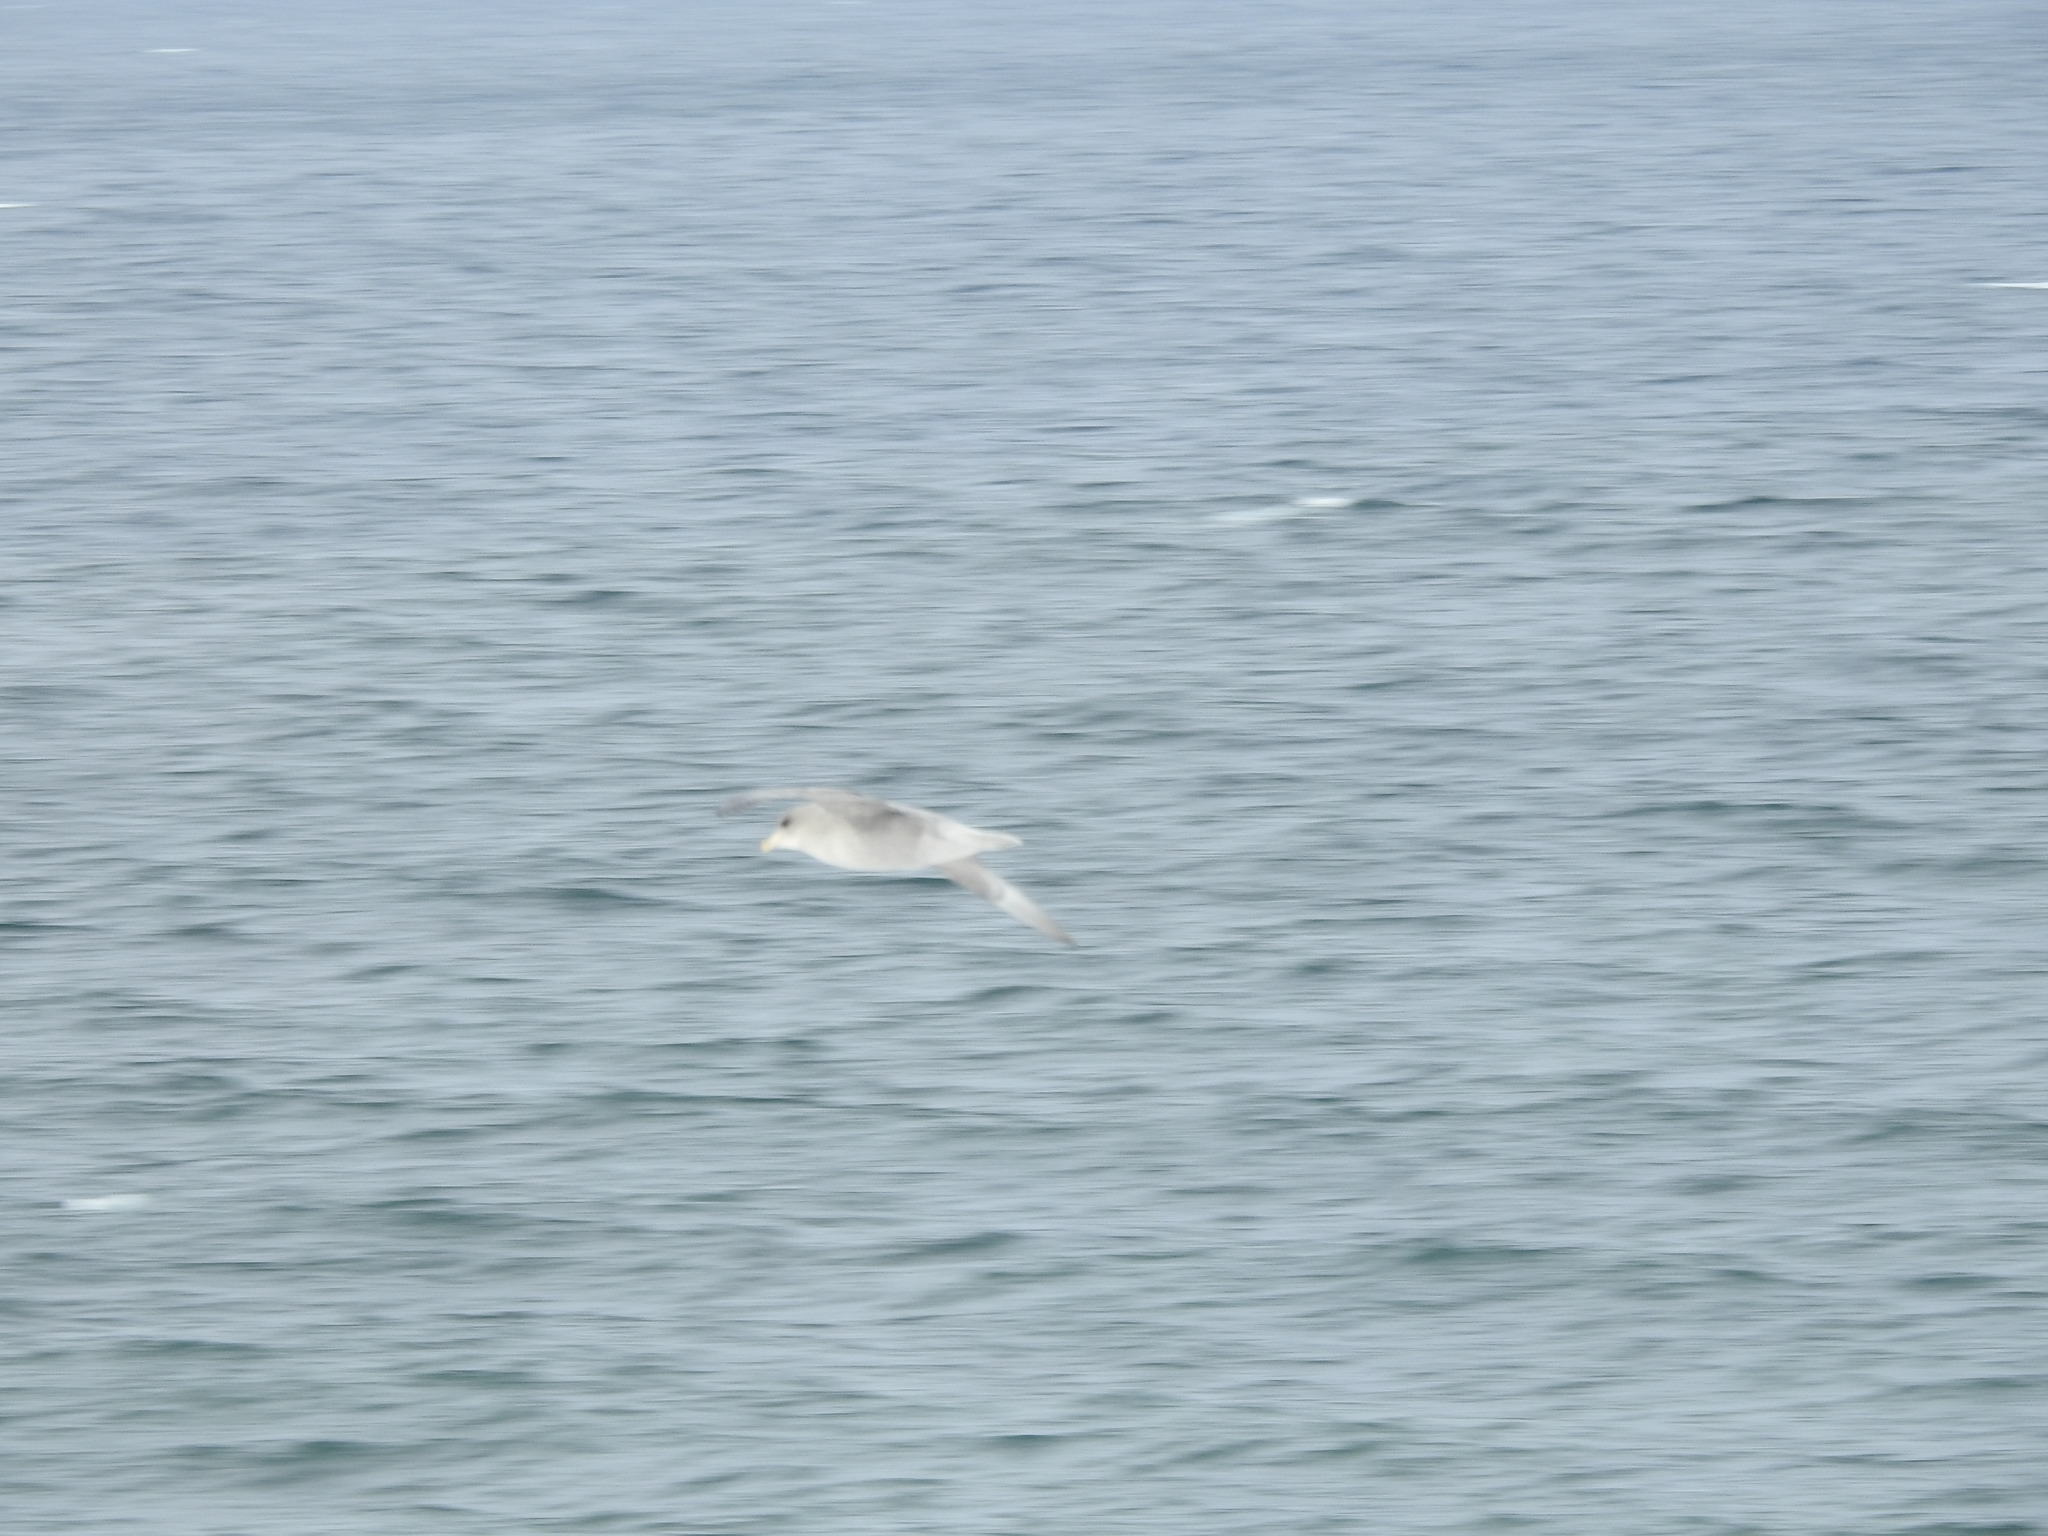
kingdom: Animalia
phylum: Chordata
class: Aves
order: Procellariiformes
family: Procellariidae
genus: Fulmarus
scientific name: Fulmarus glacialis
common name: Northern fulmar
